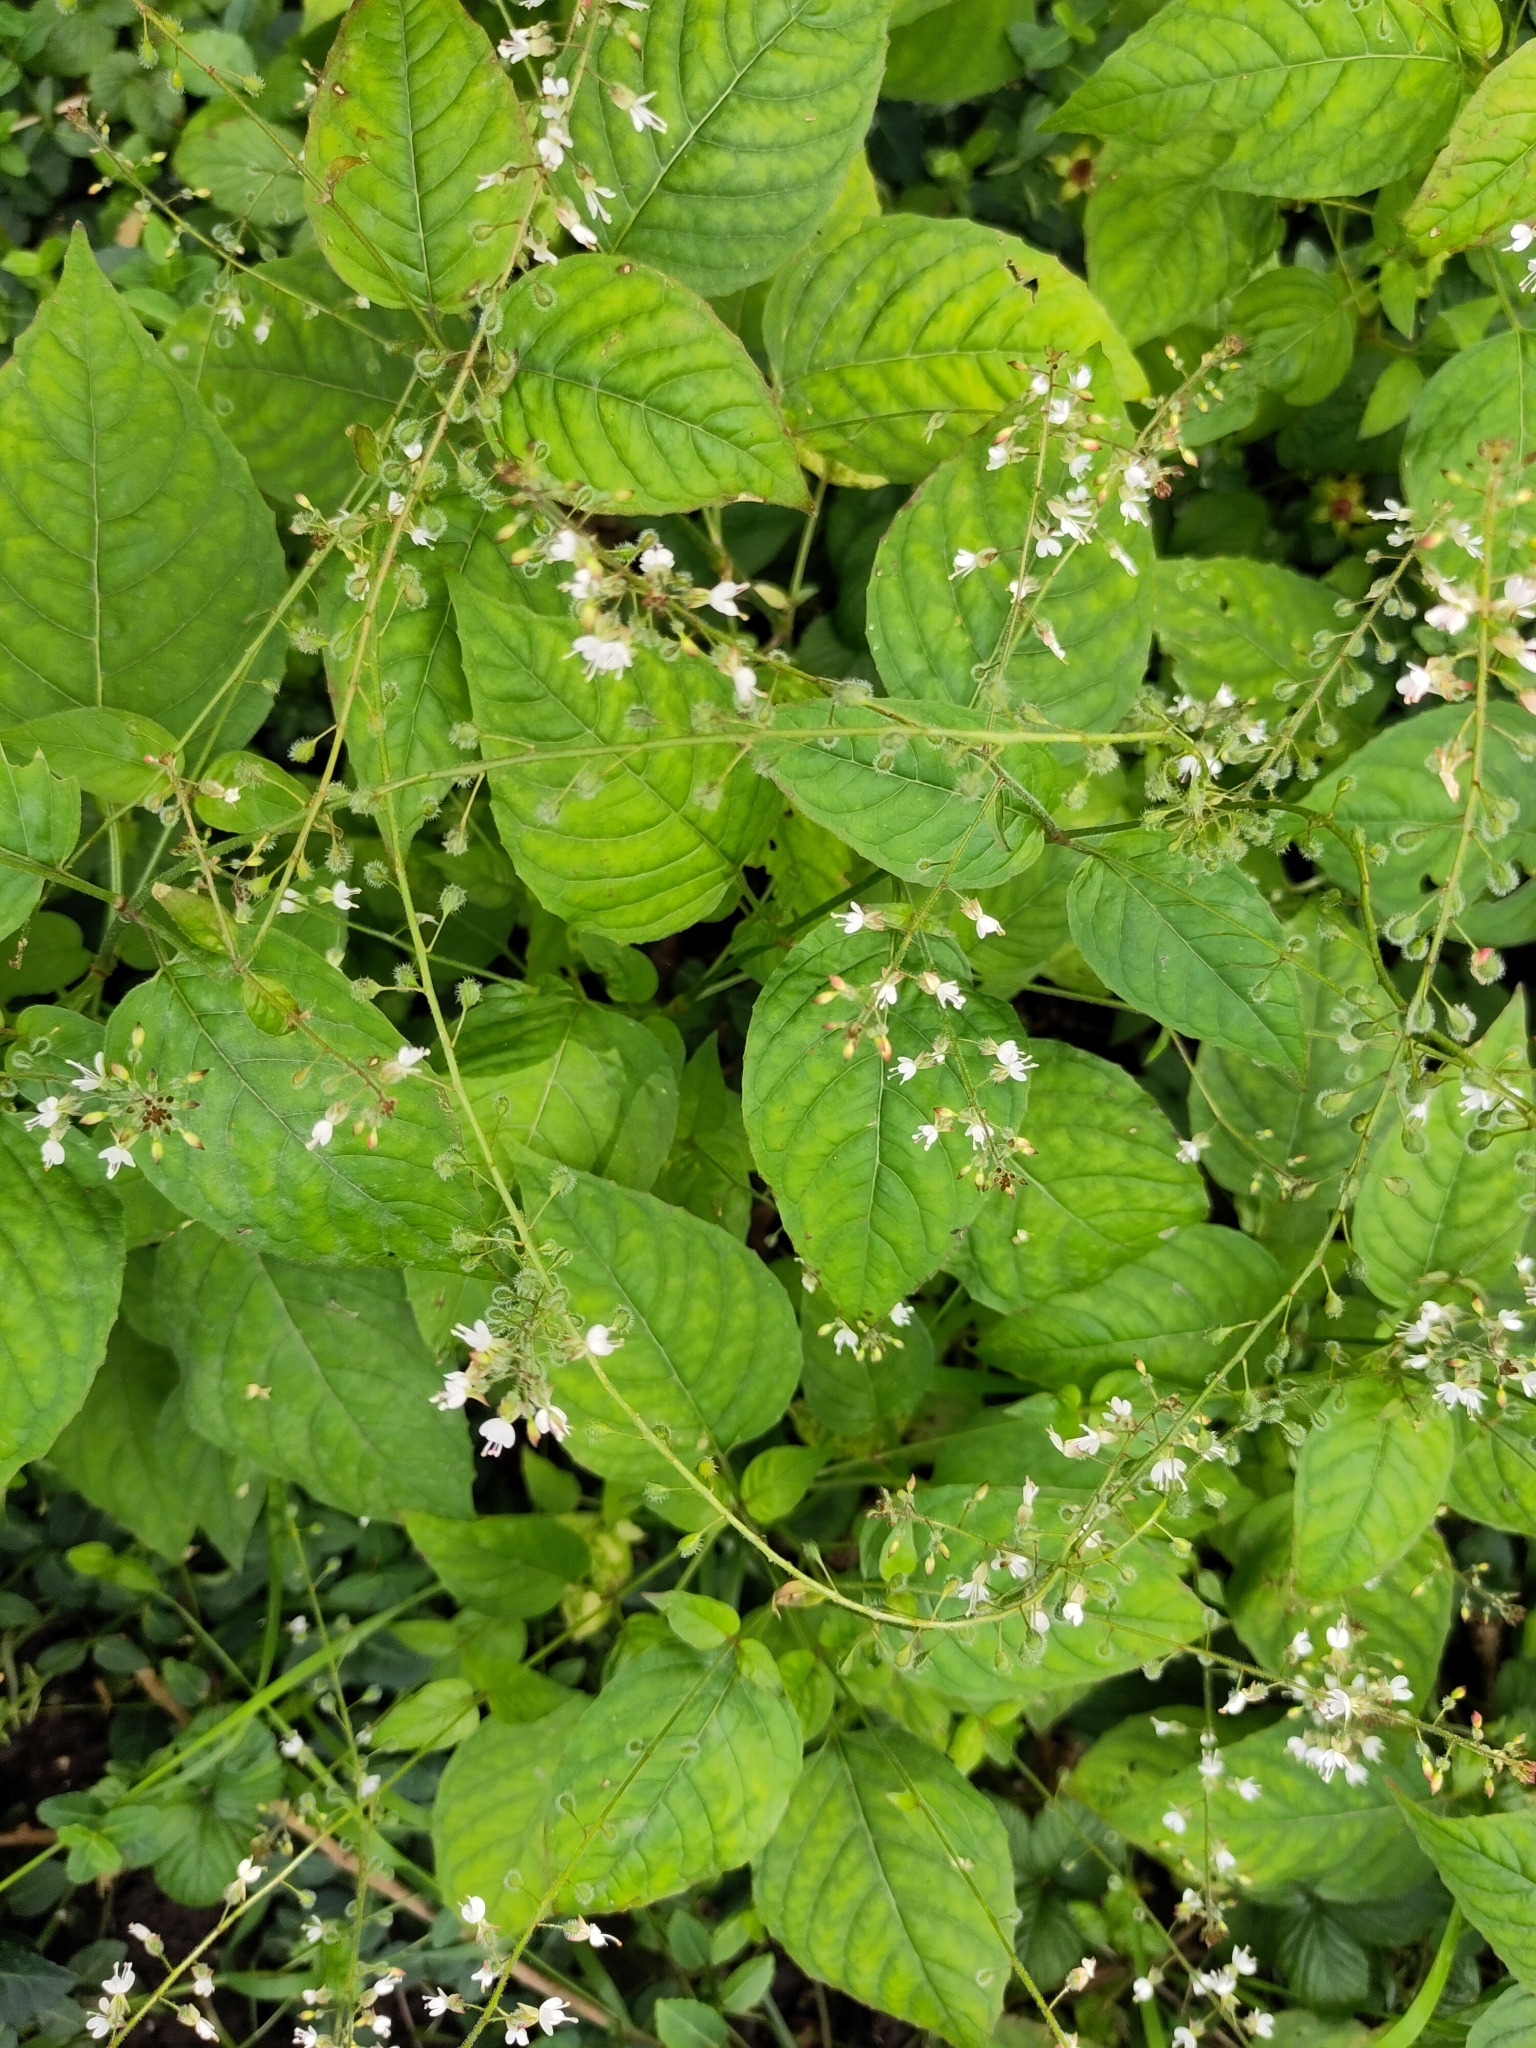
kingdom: Plantae
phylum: Tracheophyta
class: Magnoliopsida
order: Myrtales
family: Onagraceae
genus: Circaea
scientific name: Circaea lutetiana
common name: Enchanter's-nightshade
